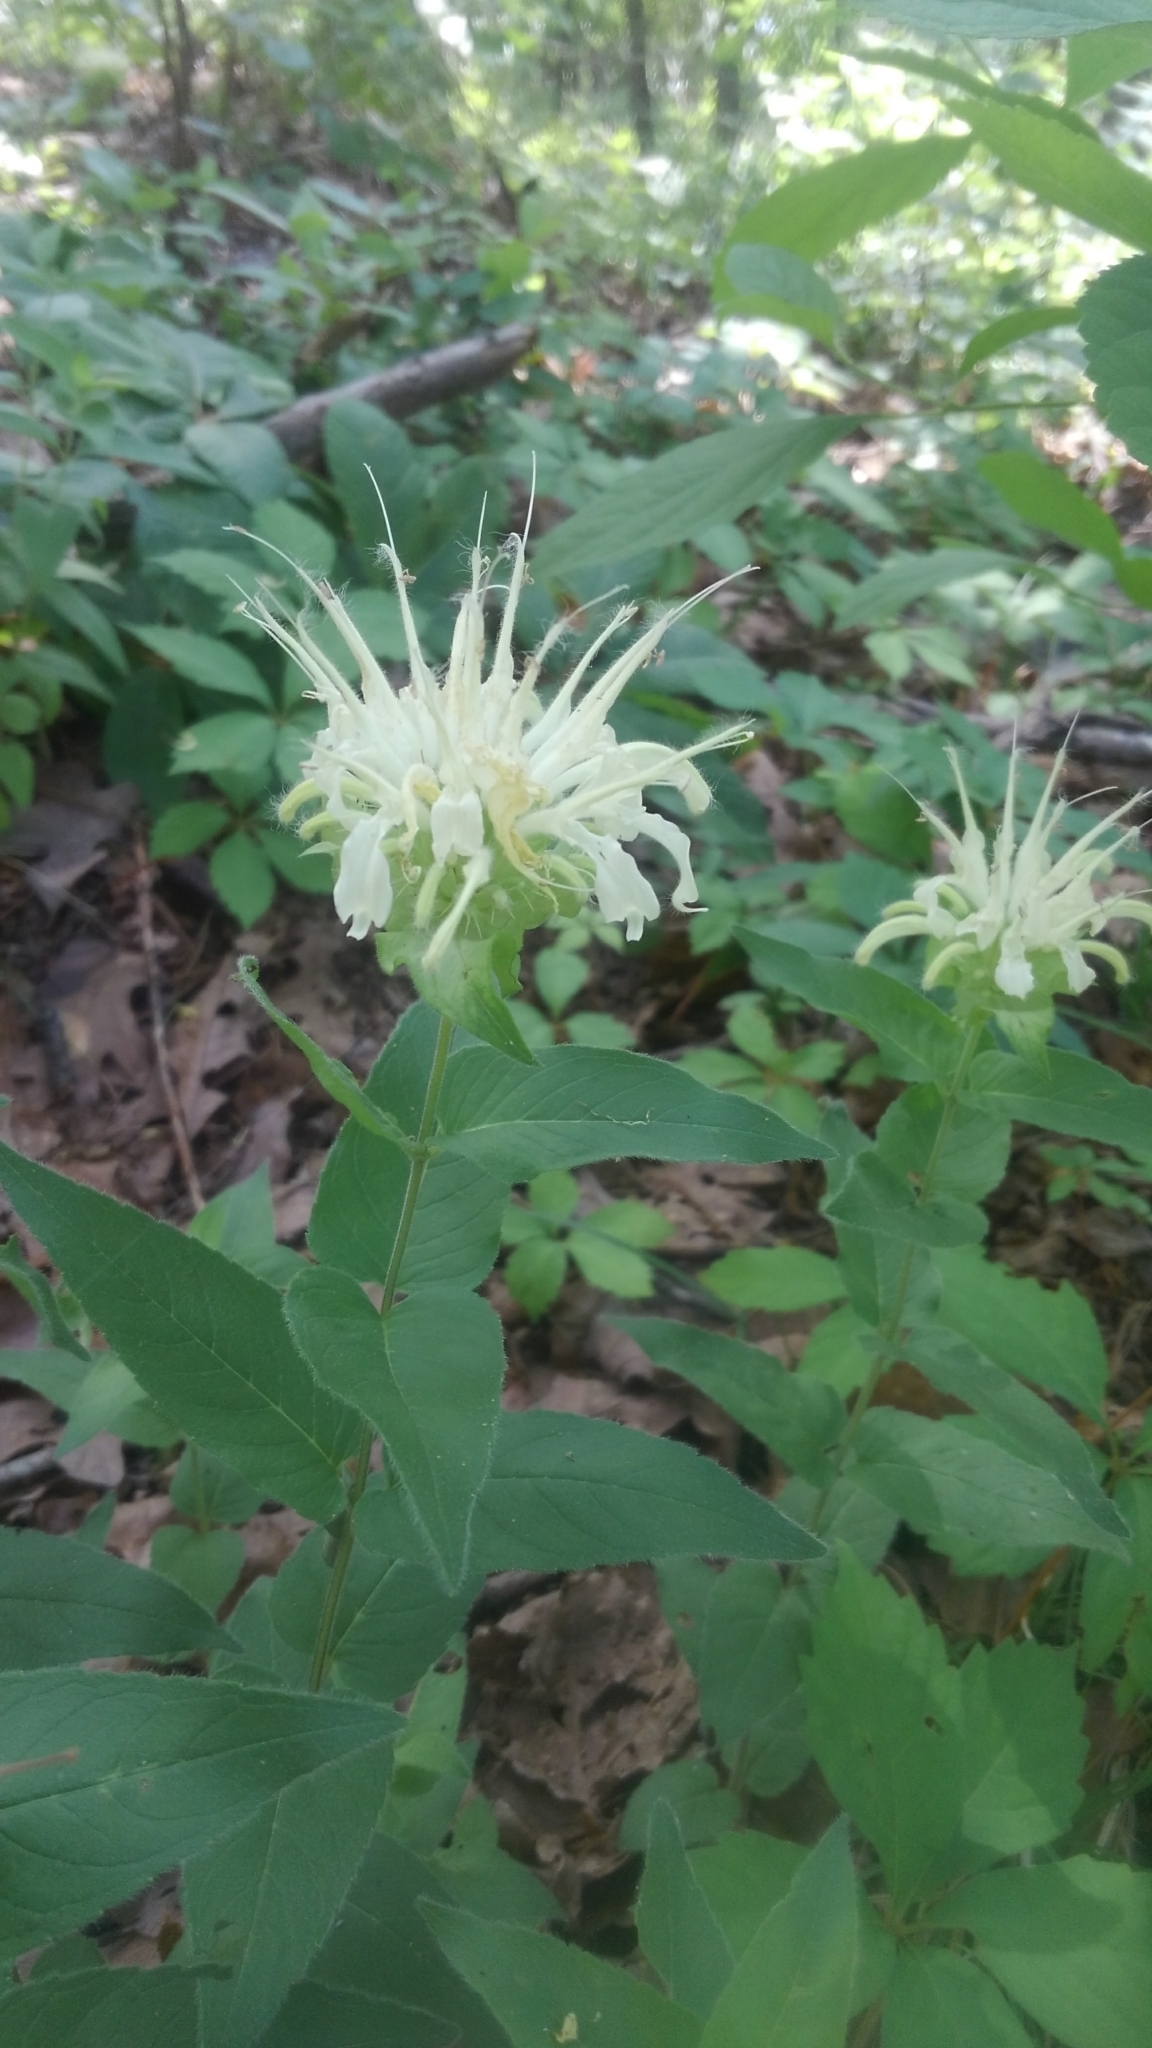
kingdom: Plantae
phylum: Tracheophyta
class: Magnoliopsida
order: Lamiales
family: Lamiaceae
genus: Monarda
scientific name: Monarda luteola
